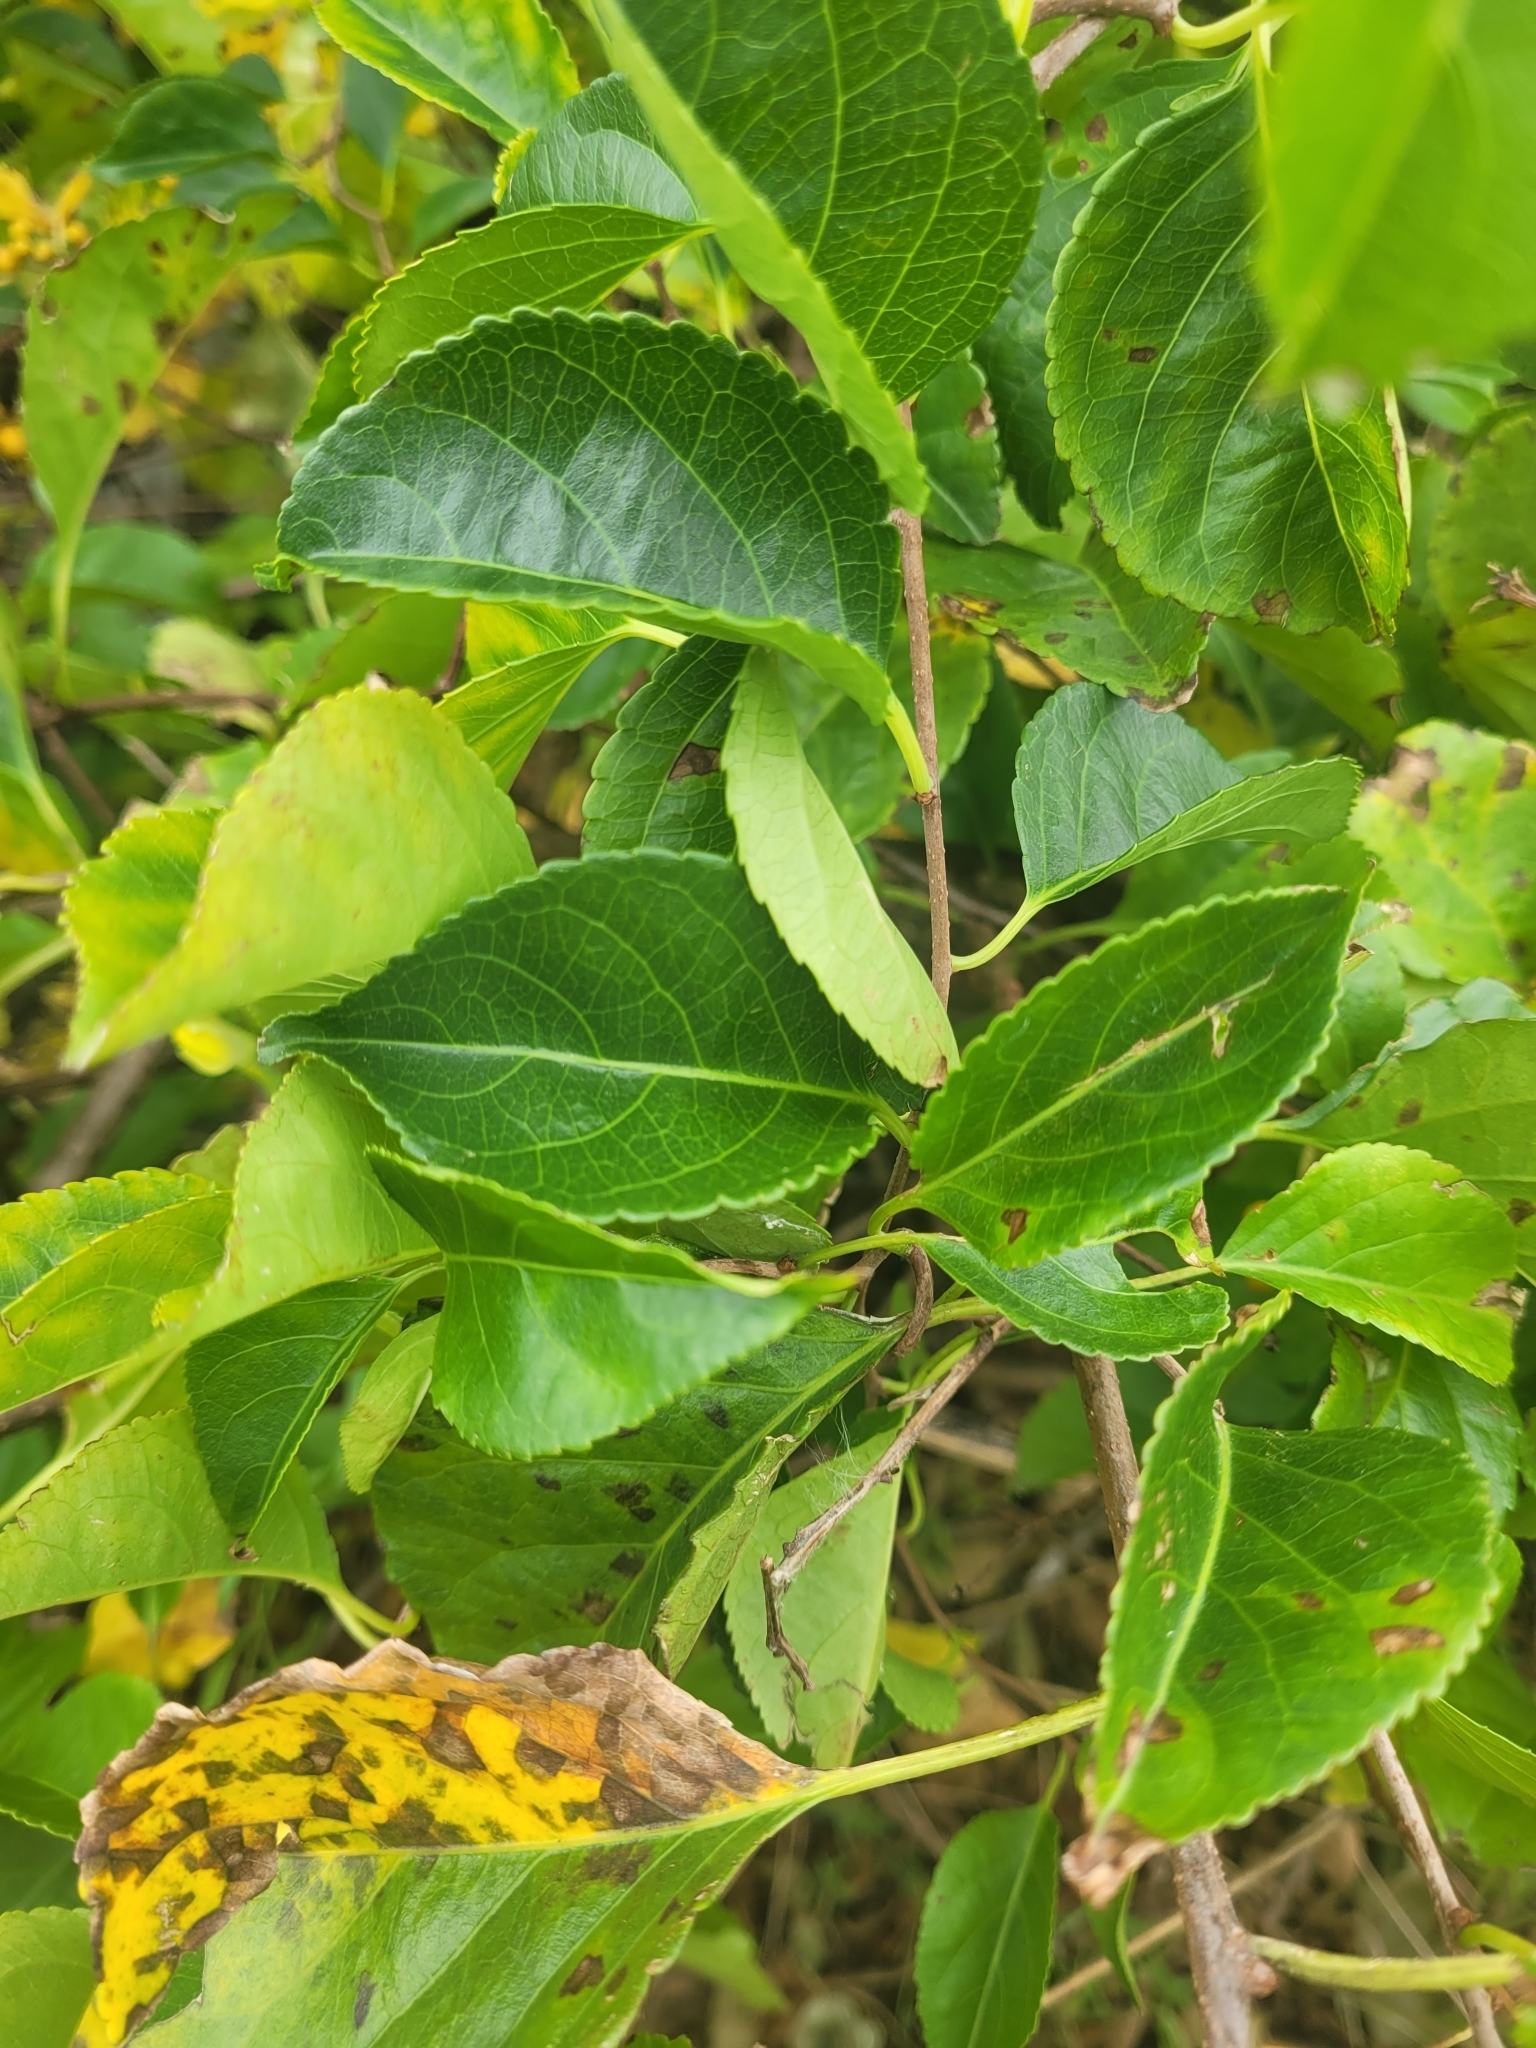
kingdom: Plantae
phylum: Tracheophyta
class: Magnoliopsida
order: Celastrales
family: Celastraceae
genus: Celastrus
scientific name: Celastrus orbiculatus
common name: Oriental bittersweet
